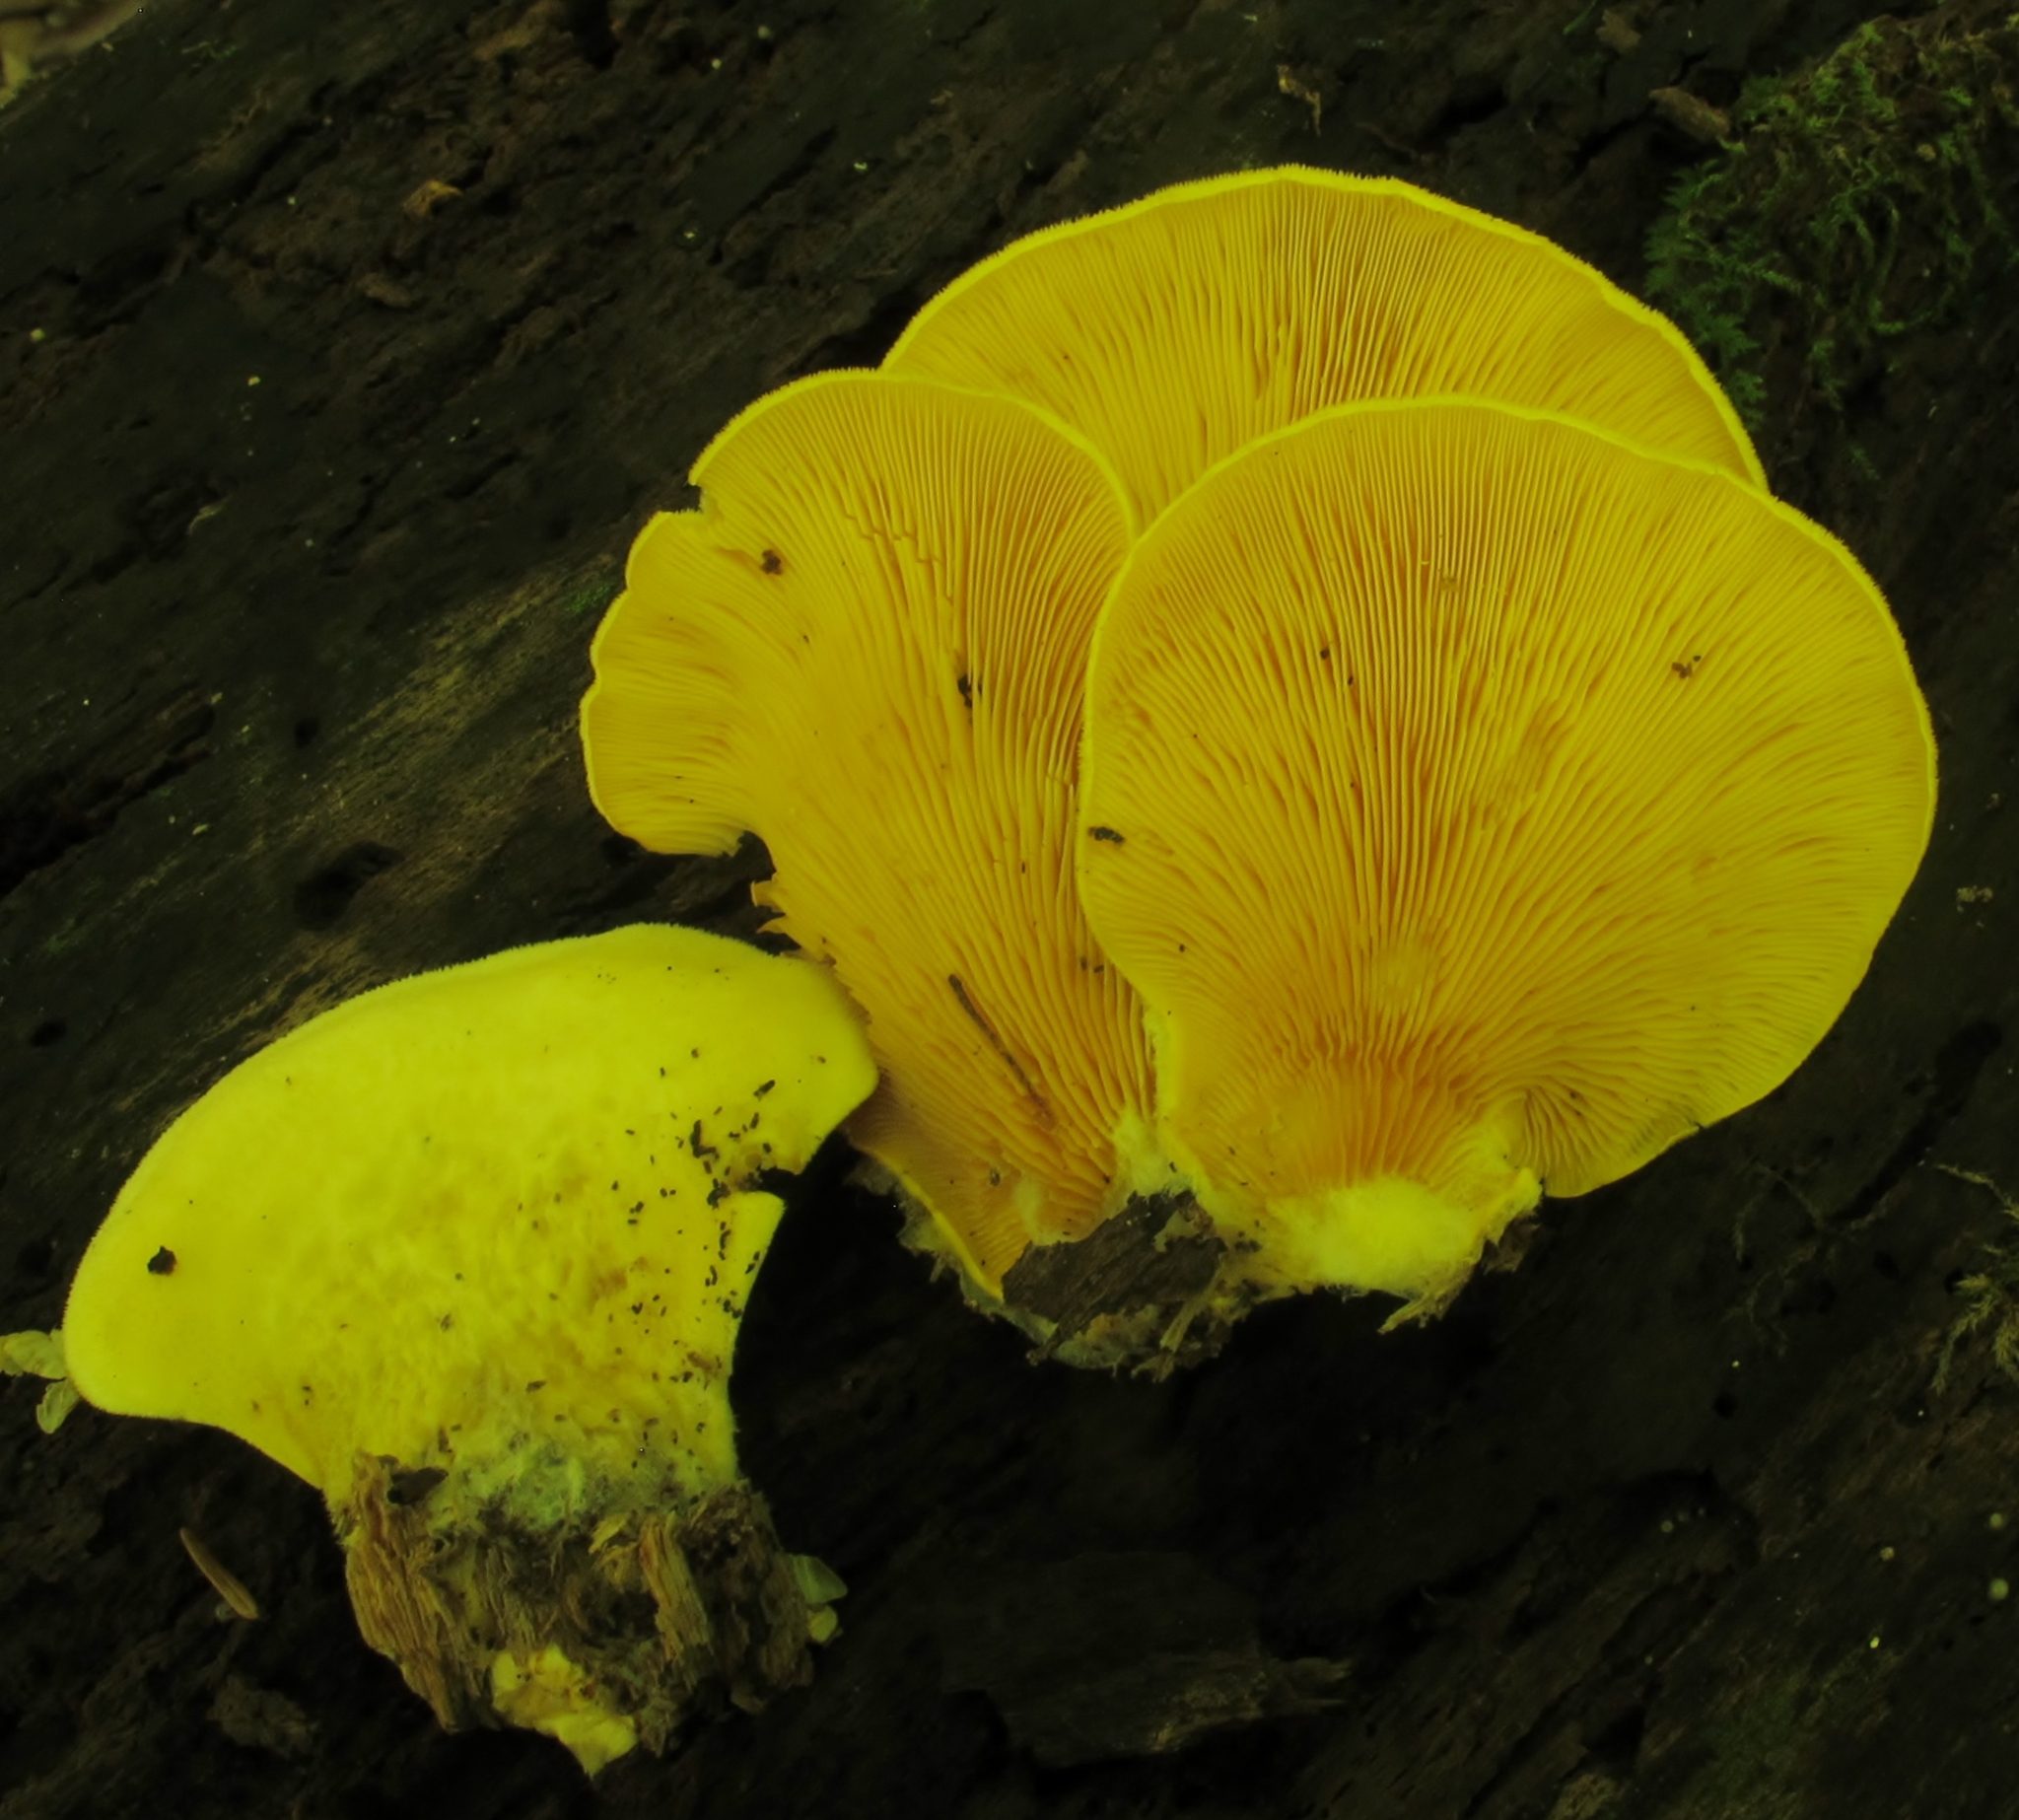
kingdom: Fungi
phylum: Basidiomycota
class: Agaricomycetes
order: Agaricales
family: Phyllotopsidaceae
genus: Phyllotopsis
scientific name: Phyllotopsis nidulans
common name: Orange mock oyster
